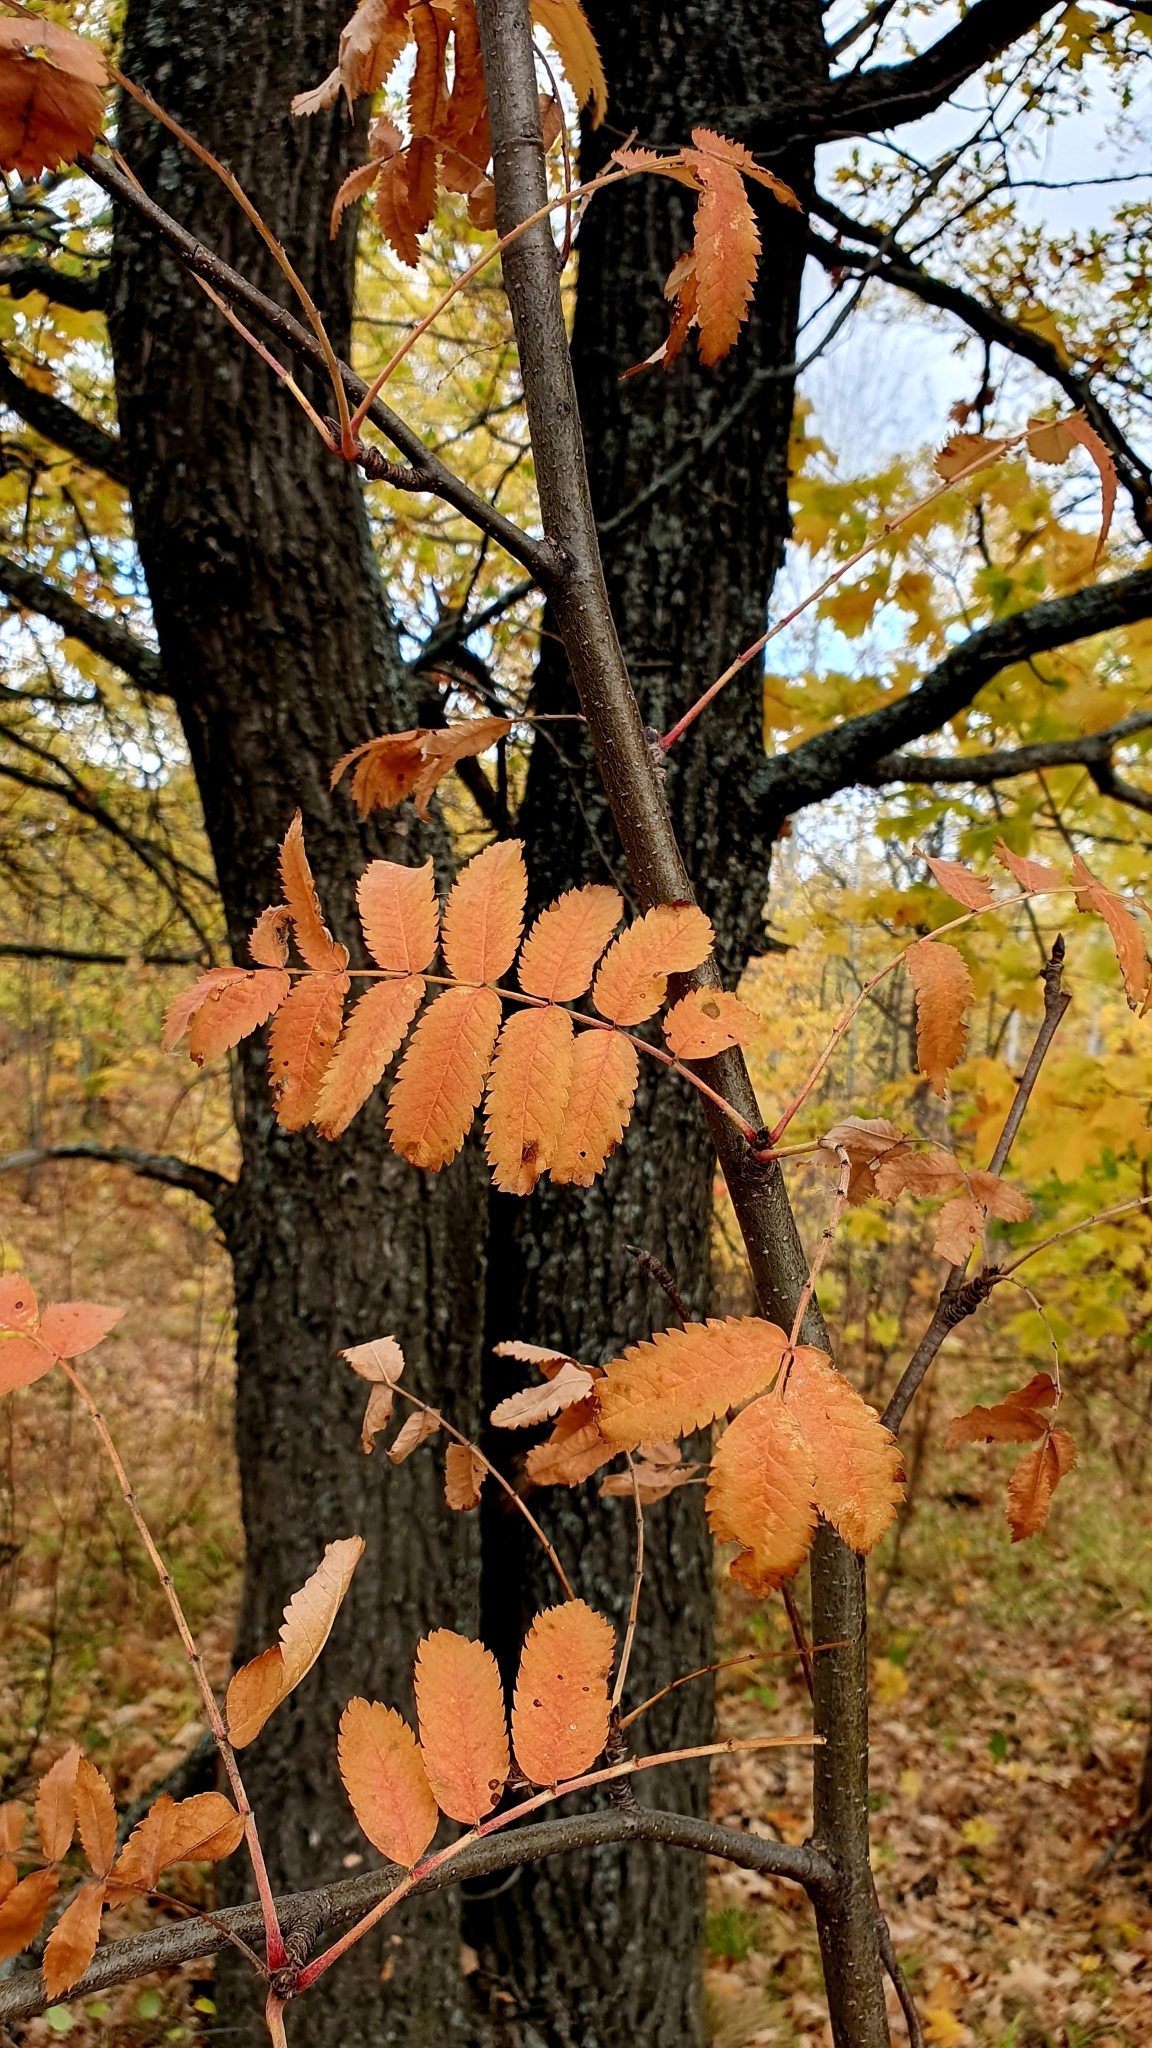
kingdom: Plantae
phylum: Tracheophyta
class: Magnoliopsida
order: Rosales
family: Rosaceae
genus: Sorbus
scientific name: Sorbus aucuparia
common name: Rowan
